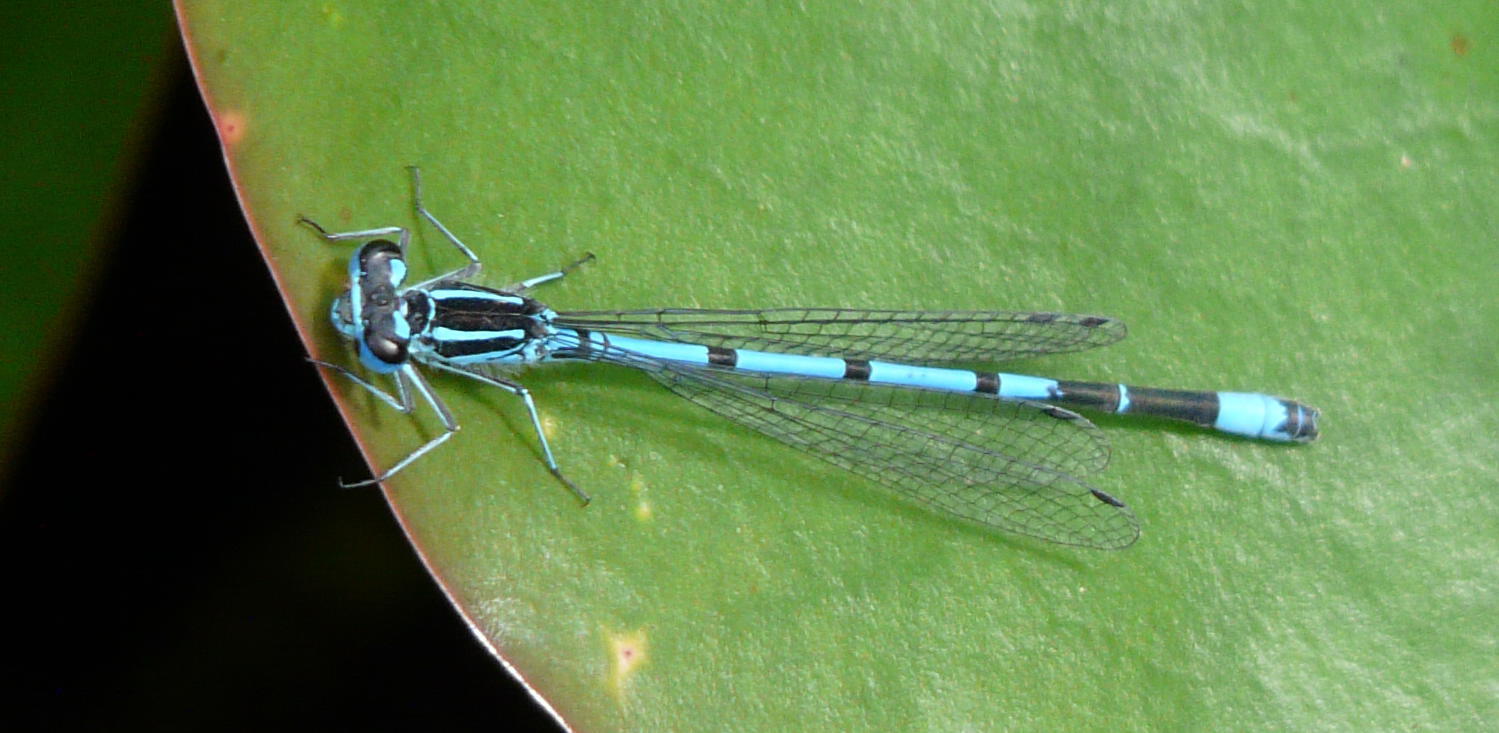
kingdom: Animalia
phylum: Arthropoda
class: Insecta
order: Odonata
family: Coenagrionidae
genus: Coenagrion
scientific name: Coenagrion puella
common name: Azure damselfly
